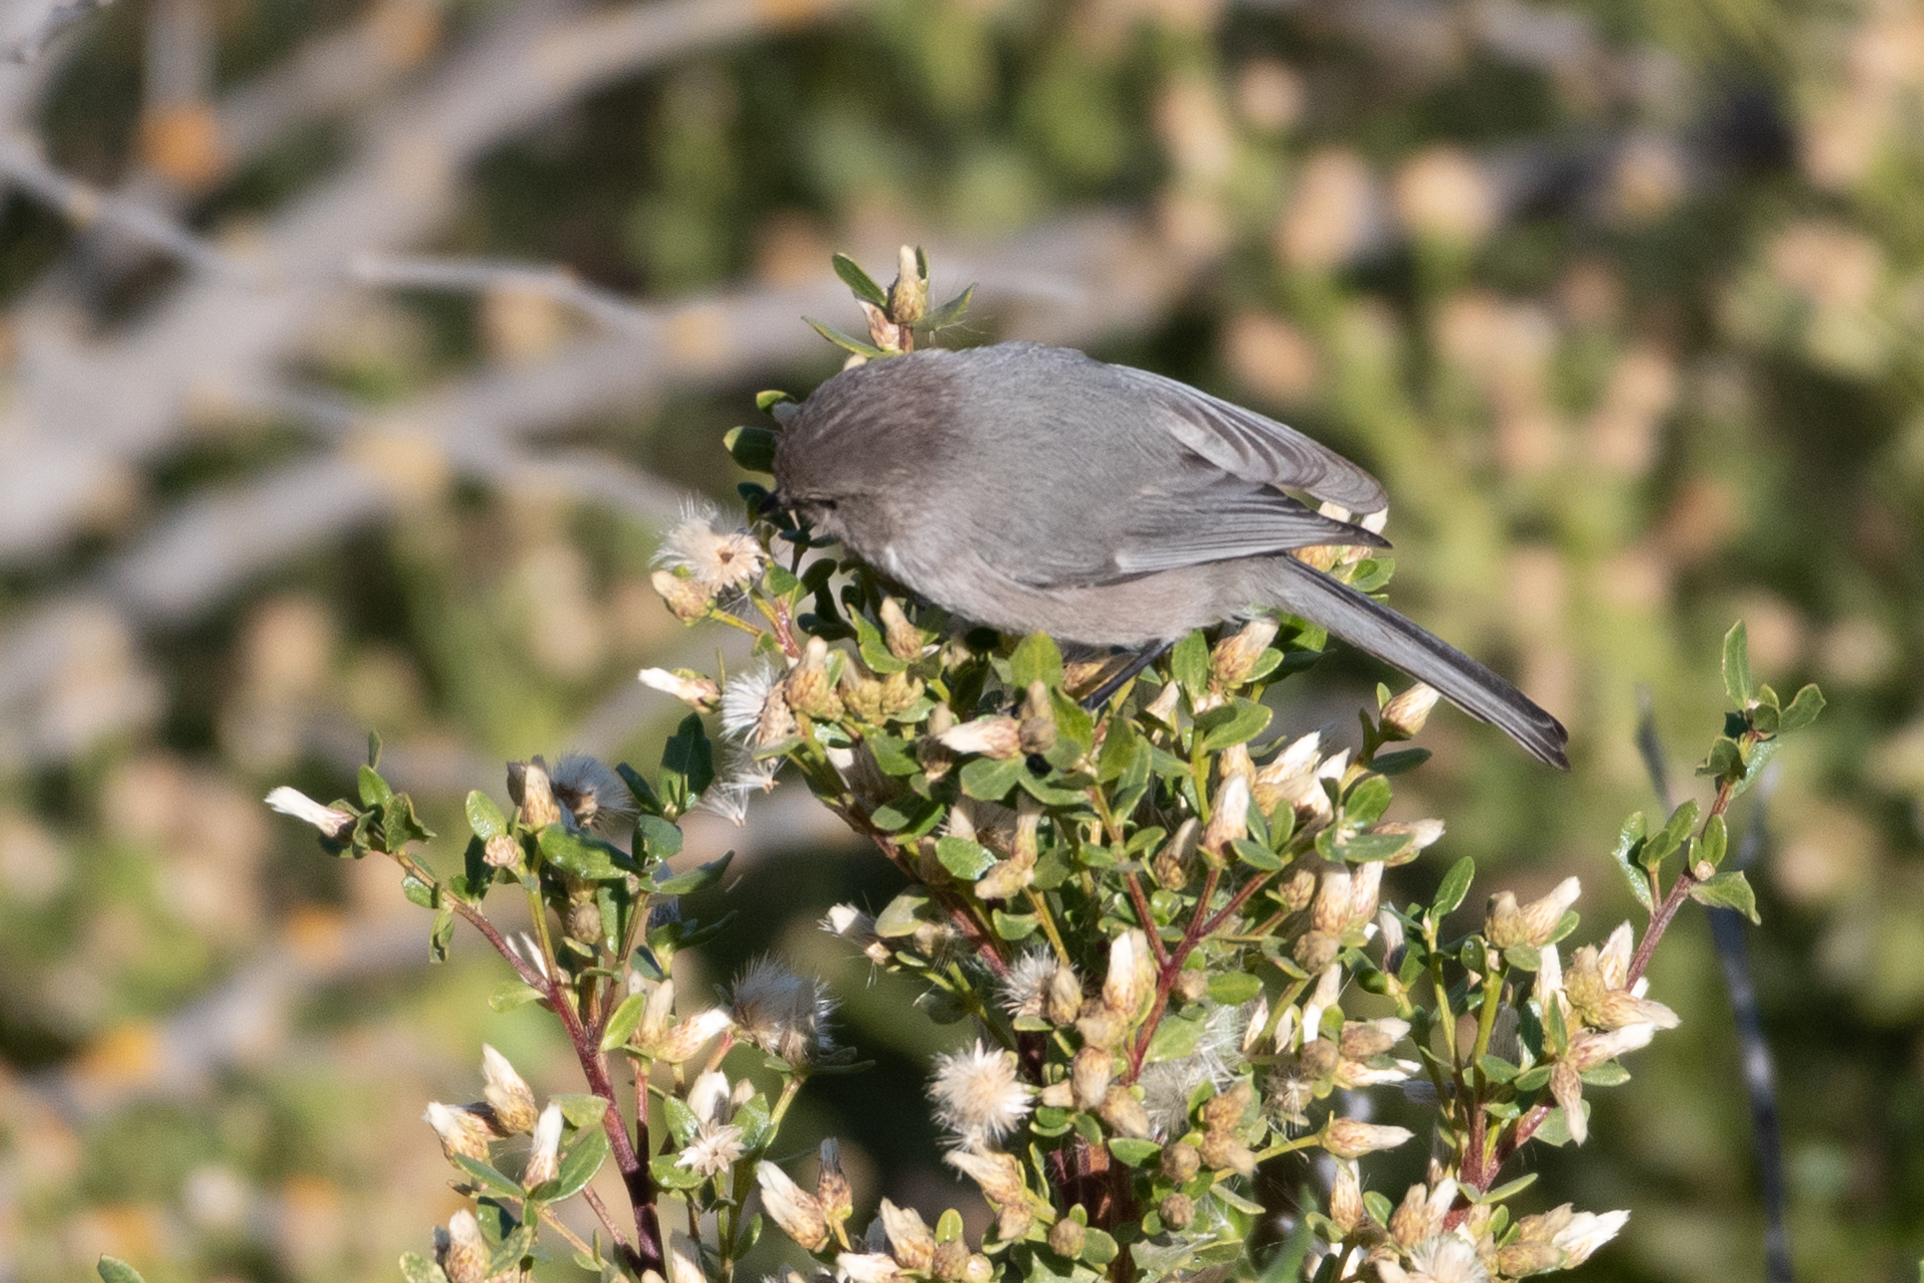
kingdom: Animalia
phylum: Chordata
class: Aves
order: Passeriformes
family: Aegithalidae
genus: Psaltriparus
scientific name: Psaltriparus minimus
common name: American bushtit
